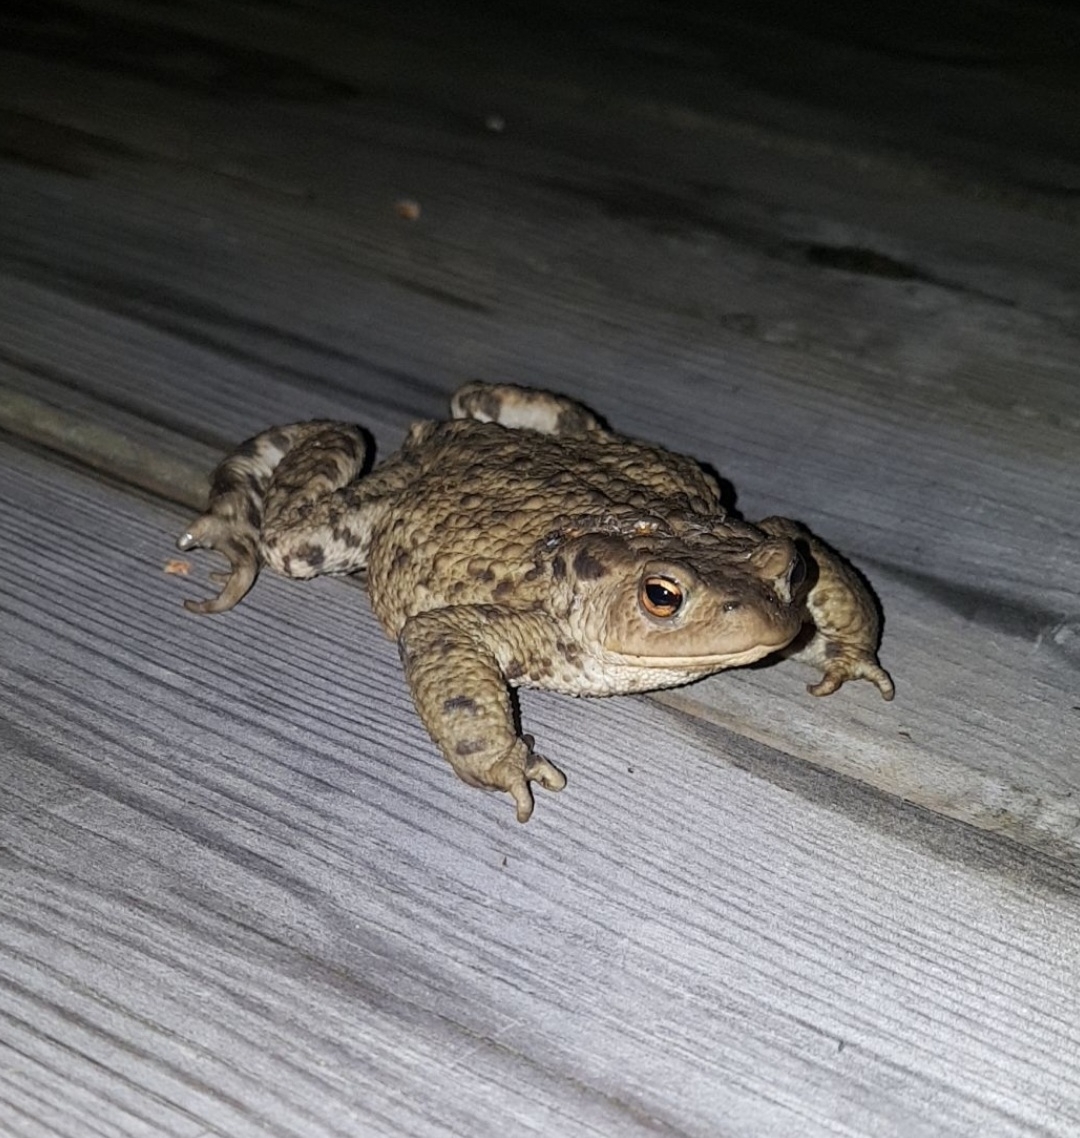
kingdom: Animalia
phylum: Chordata
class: Amphibia
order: Anura
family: Bufonidae
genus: Bufo
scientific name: Bufo bufo
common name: Common toad
